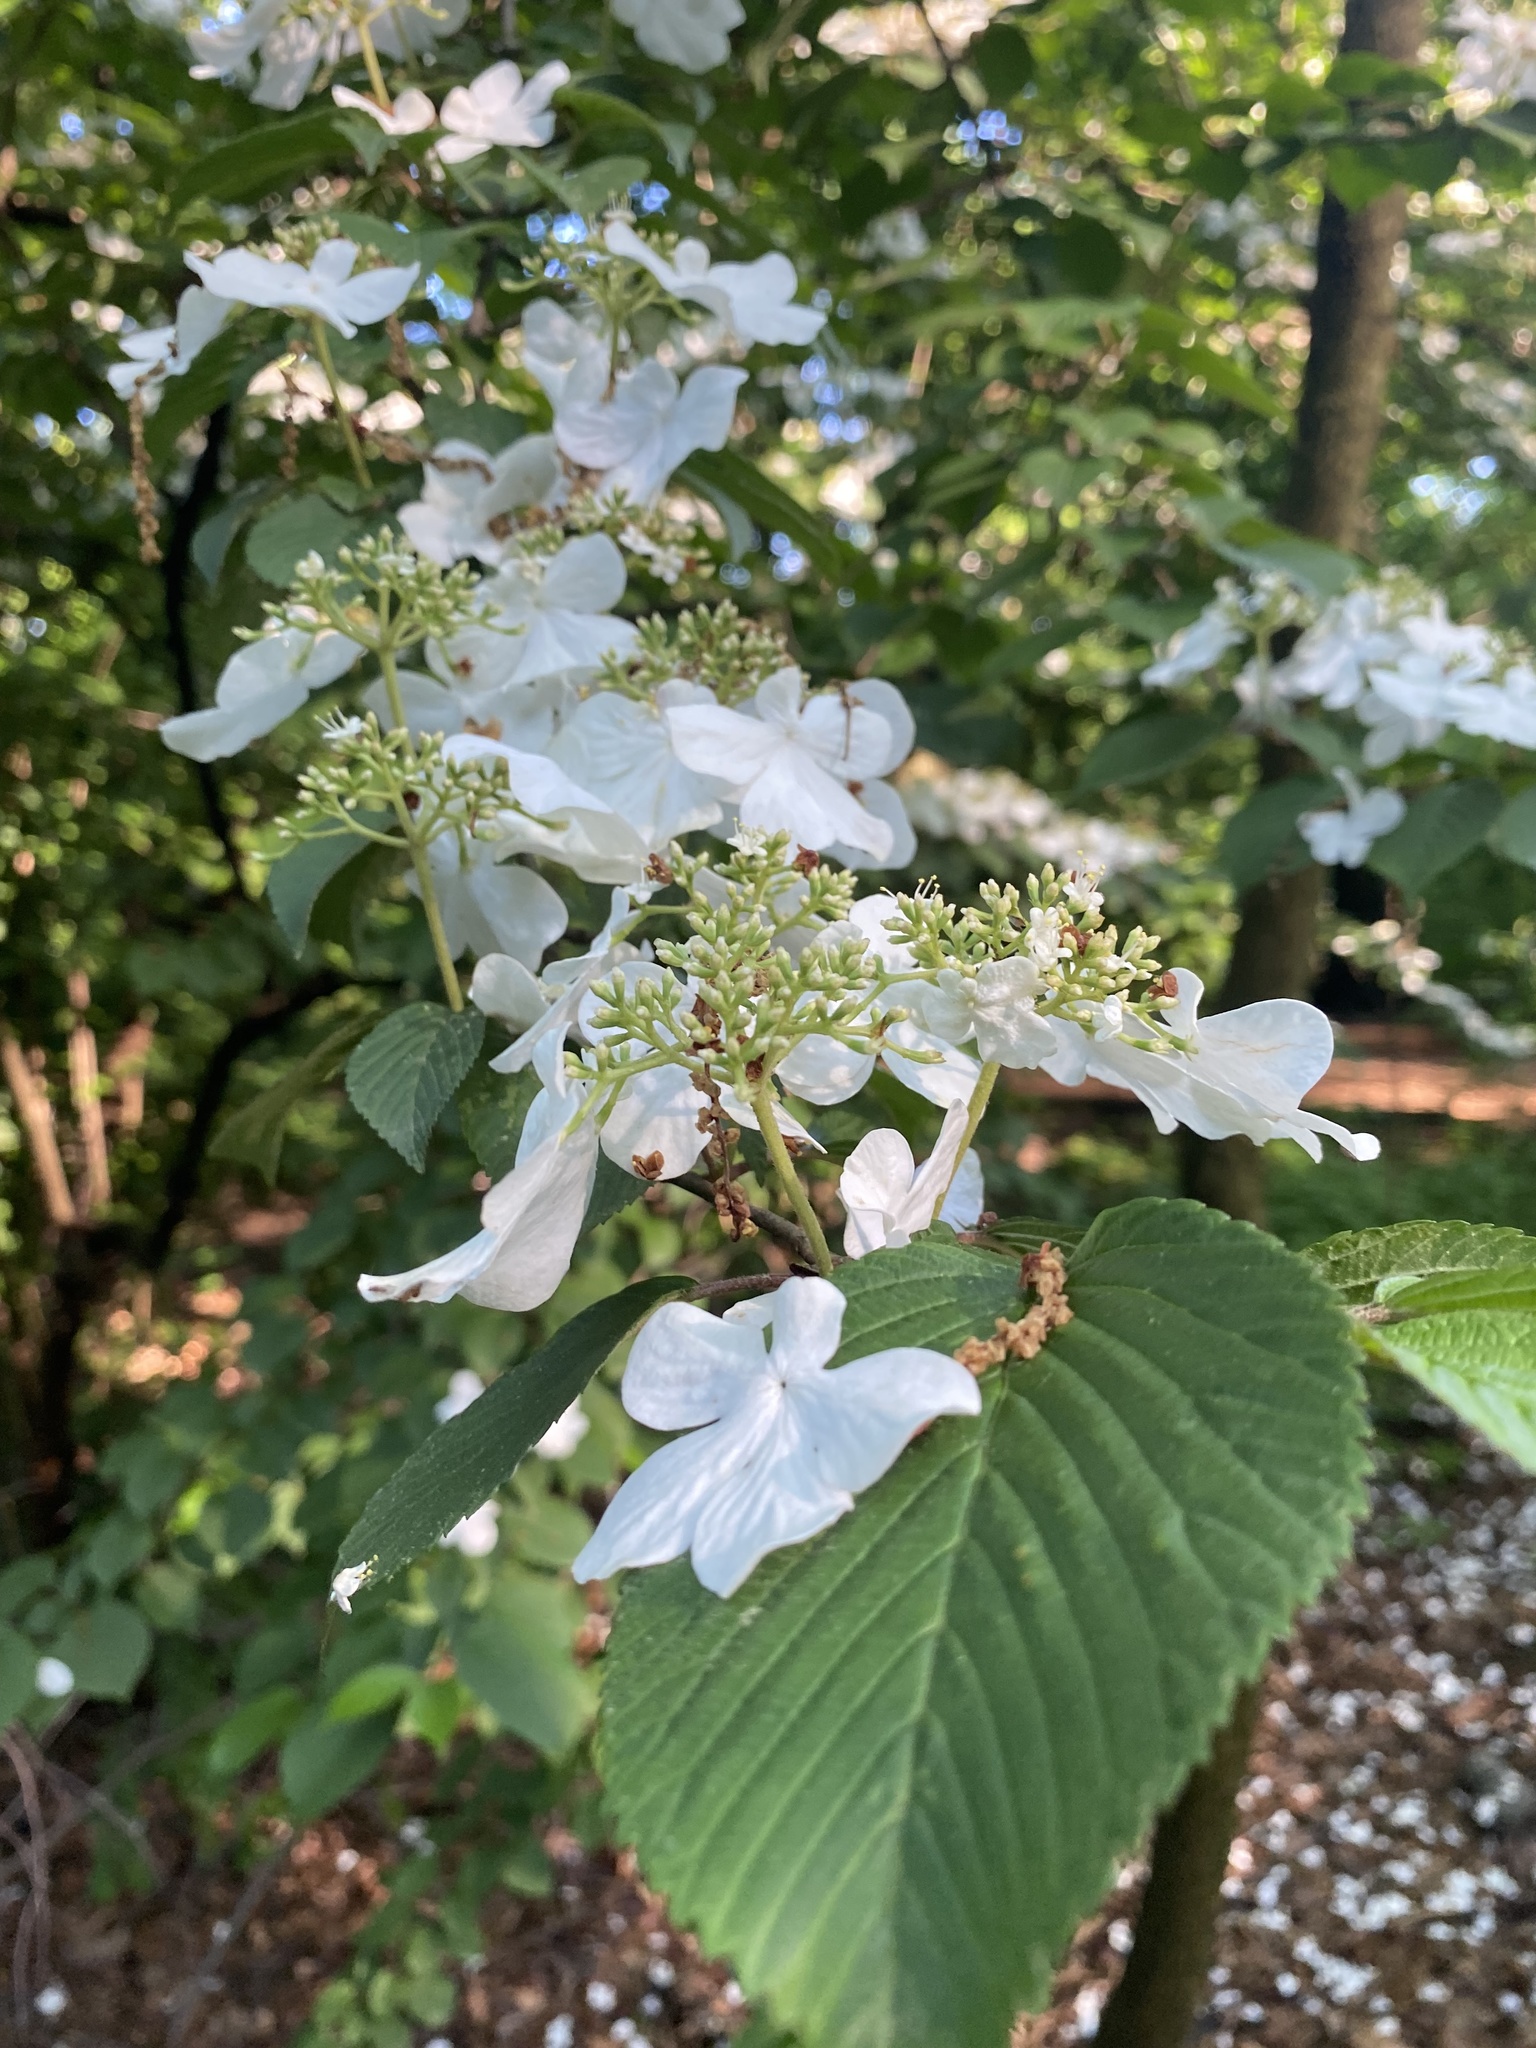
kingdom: Plantae
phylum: Tracheophyta
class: Magnoliopsida
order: Dipsacales
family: Viburnaceae
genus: Viburnum
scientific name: Viburnum plicatum
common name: Japanese snowball
